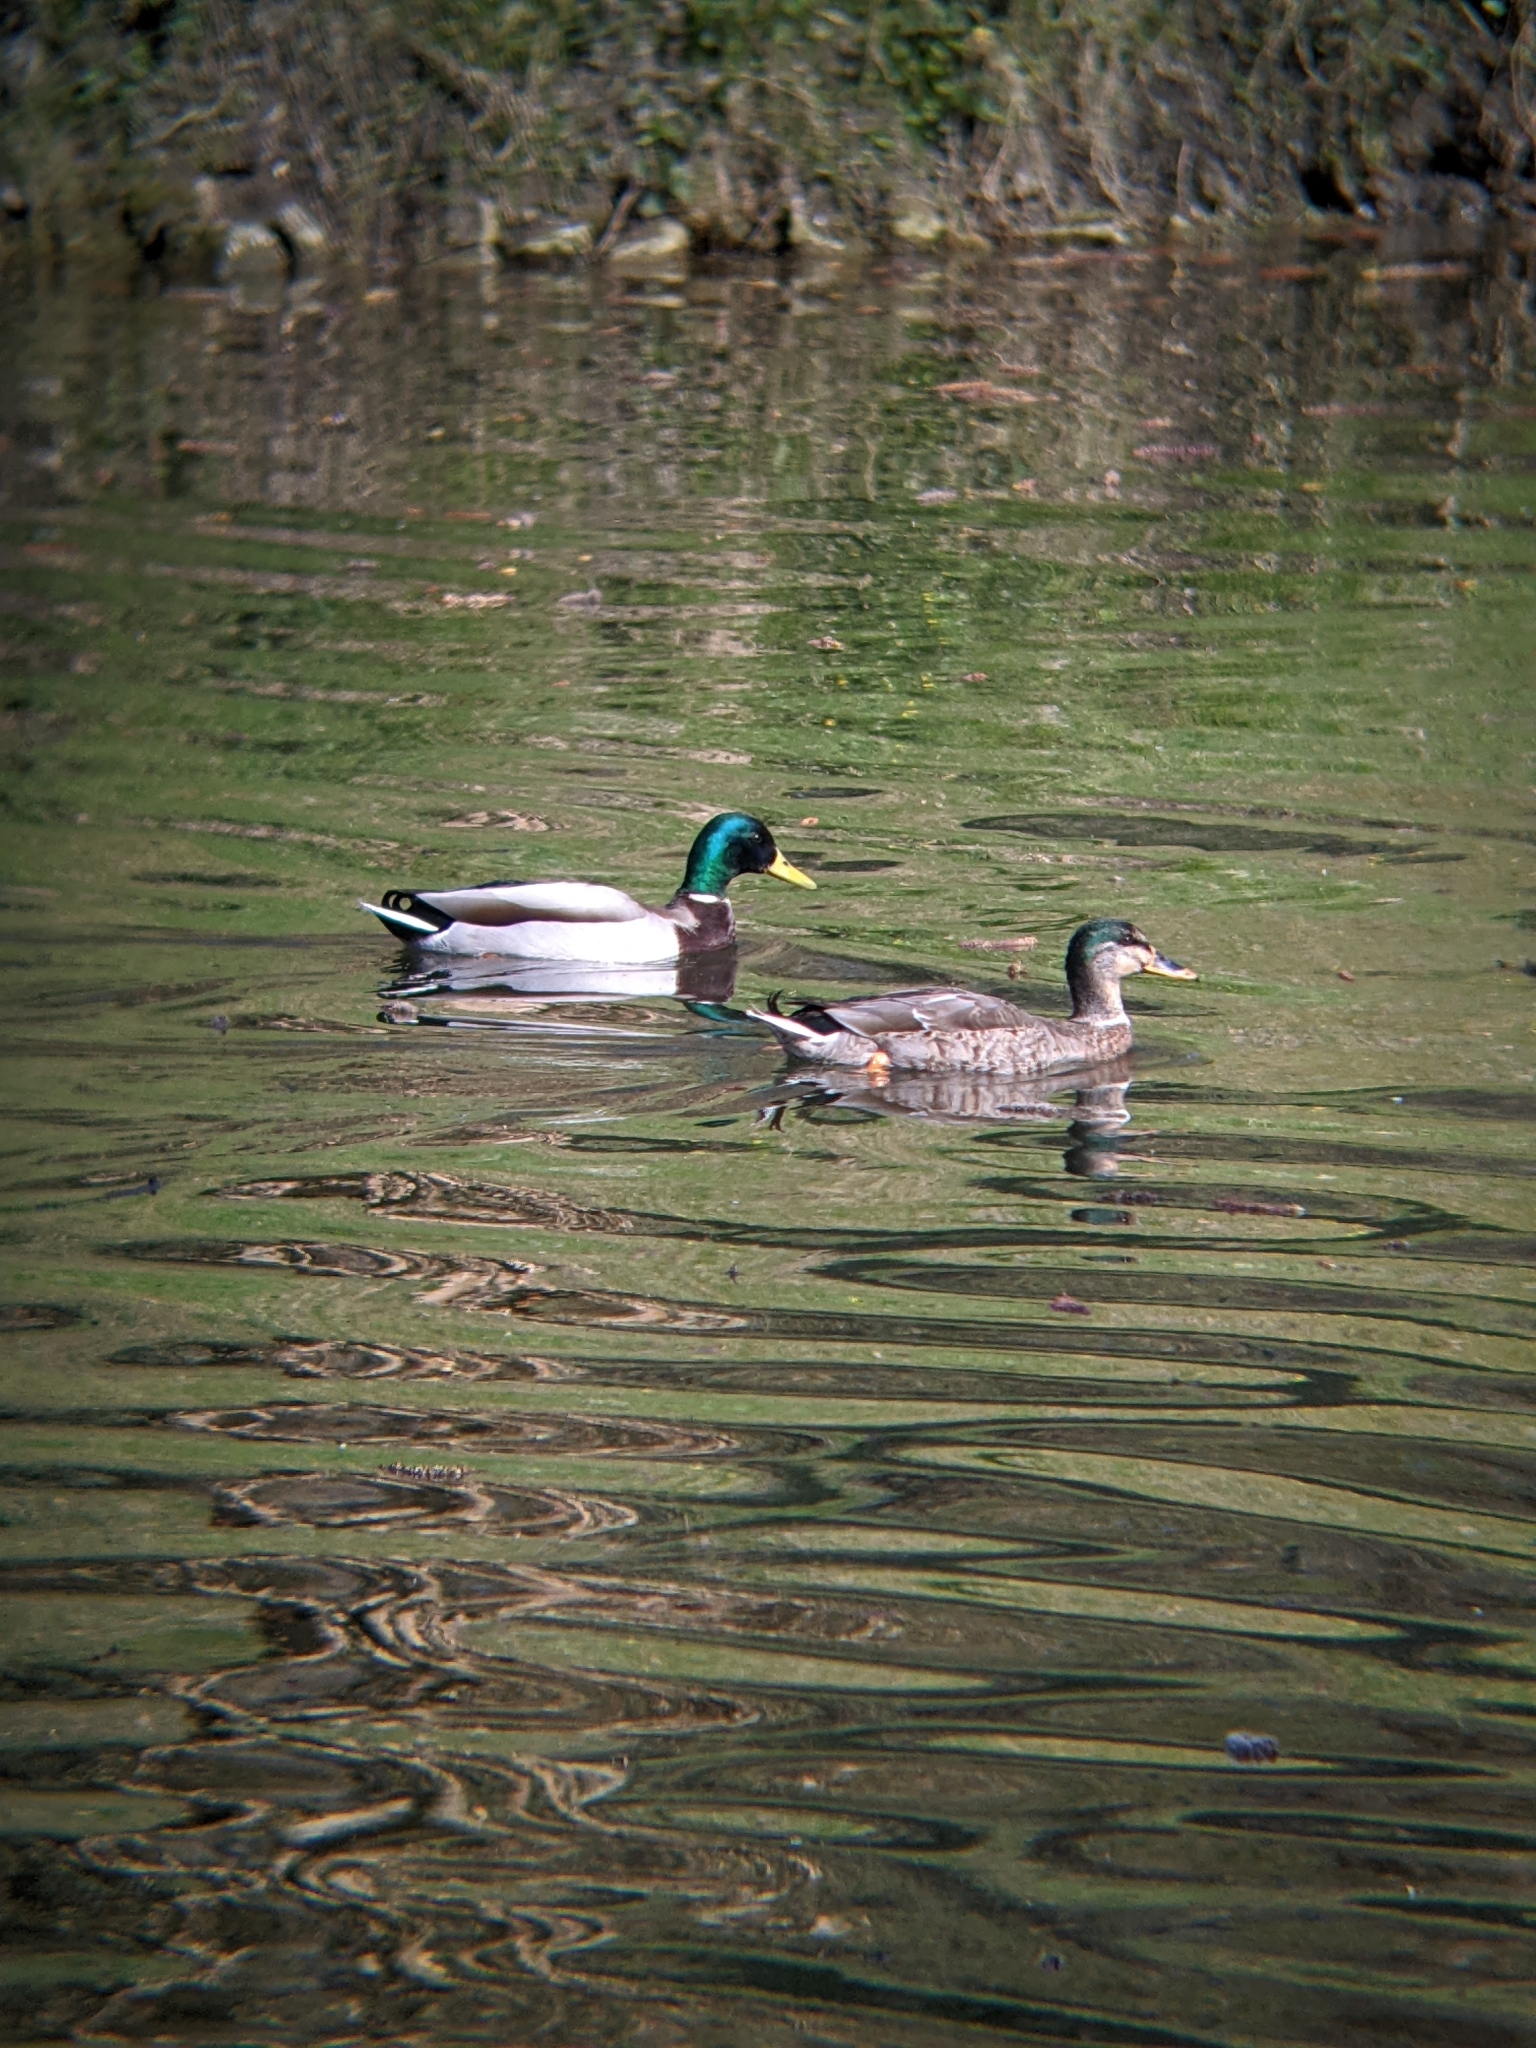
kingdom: Animalia
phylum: Chordata
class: Aves
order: Anseriformes
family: Anatidae
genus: Anas
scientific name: Anas platyrhynchos
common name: Mallard
